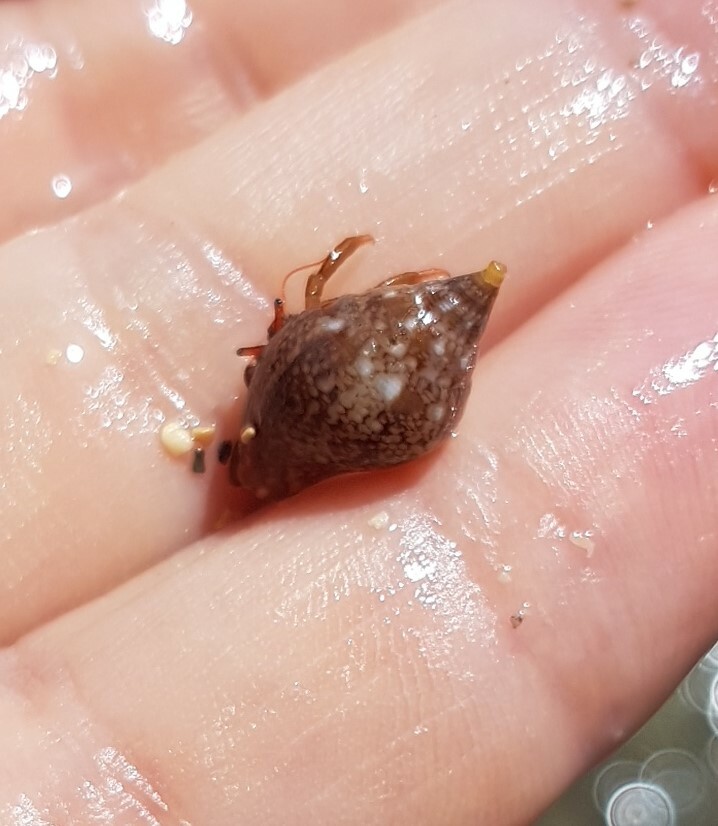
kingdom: Animalia
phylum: Mollusca
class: Gastropoda
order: Neogastropoda
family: Columbellidae
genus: Columbella
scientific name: Columbella rustica
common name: Rustic dove shell
